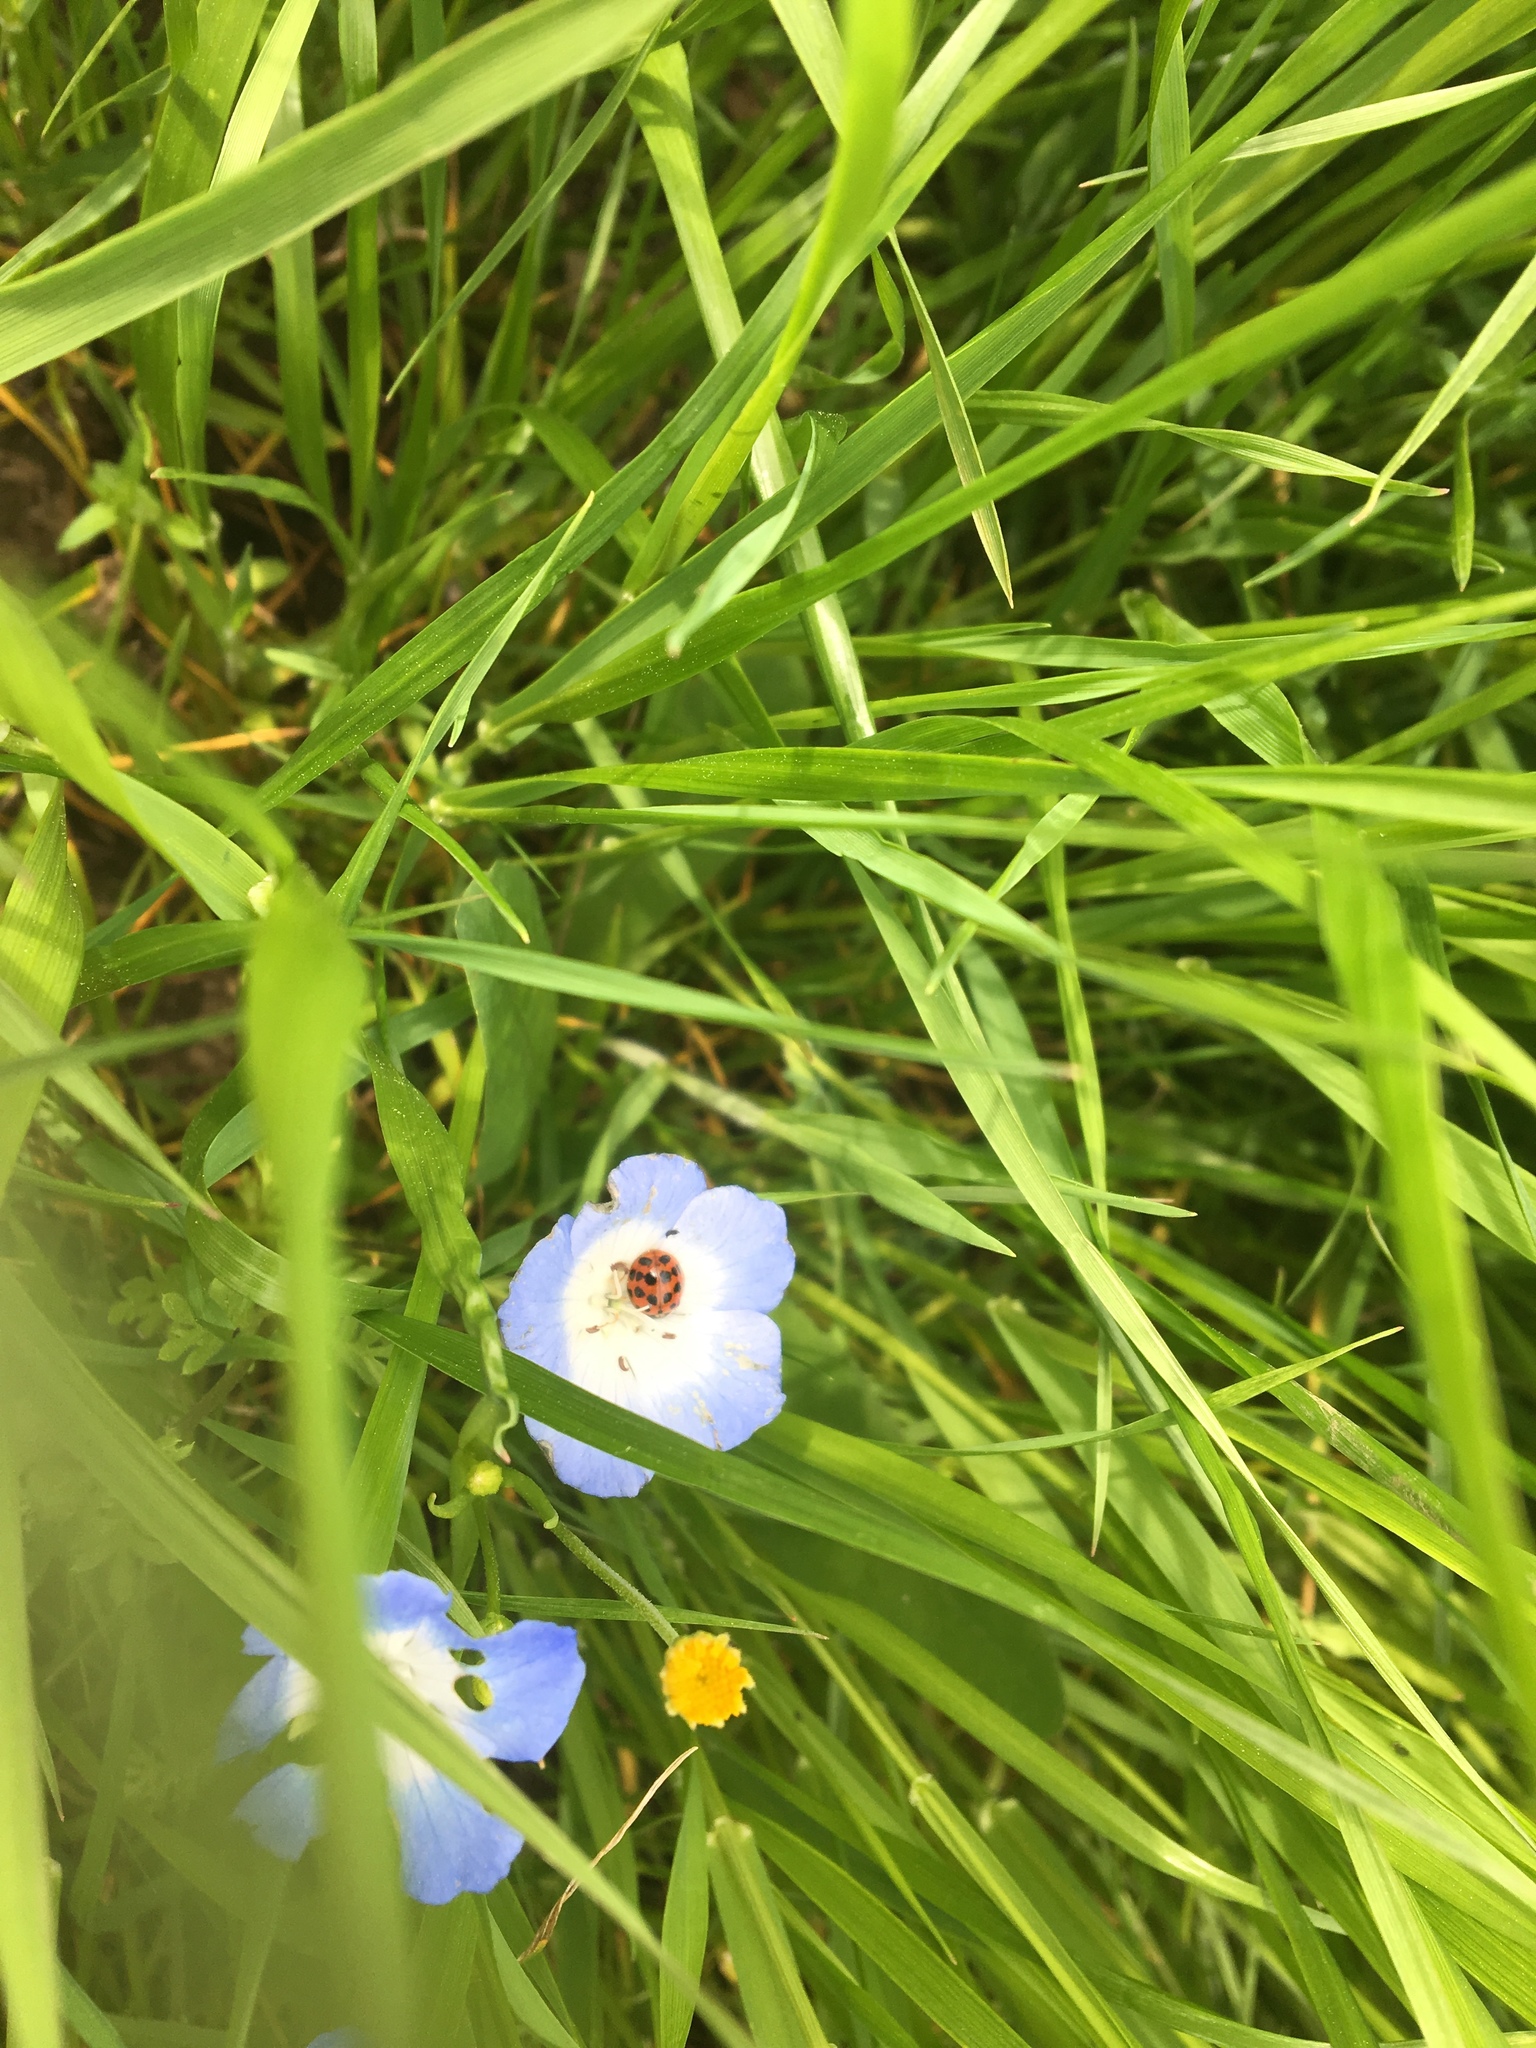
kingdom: Animalia
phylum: Arthropoda
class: Insecta
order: Coleoptera
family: Coccinellidae
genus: Harmonia
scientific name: Harmonia axyridis
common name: Harlequin ladybird
